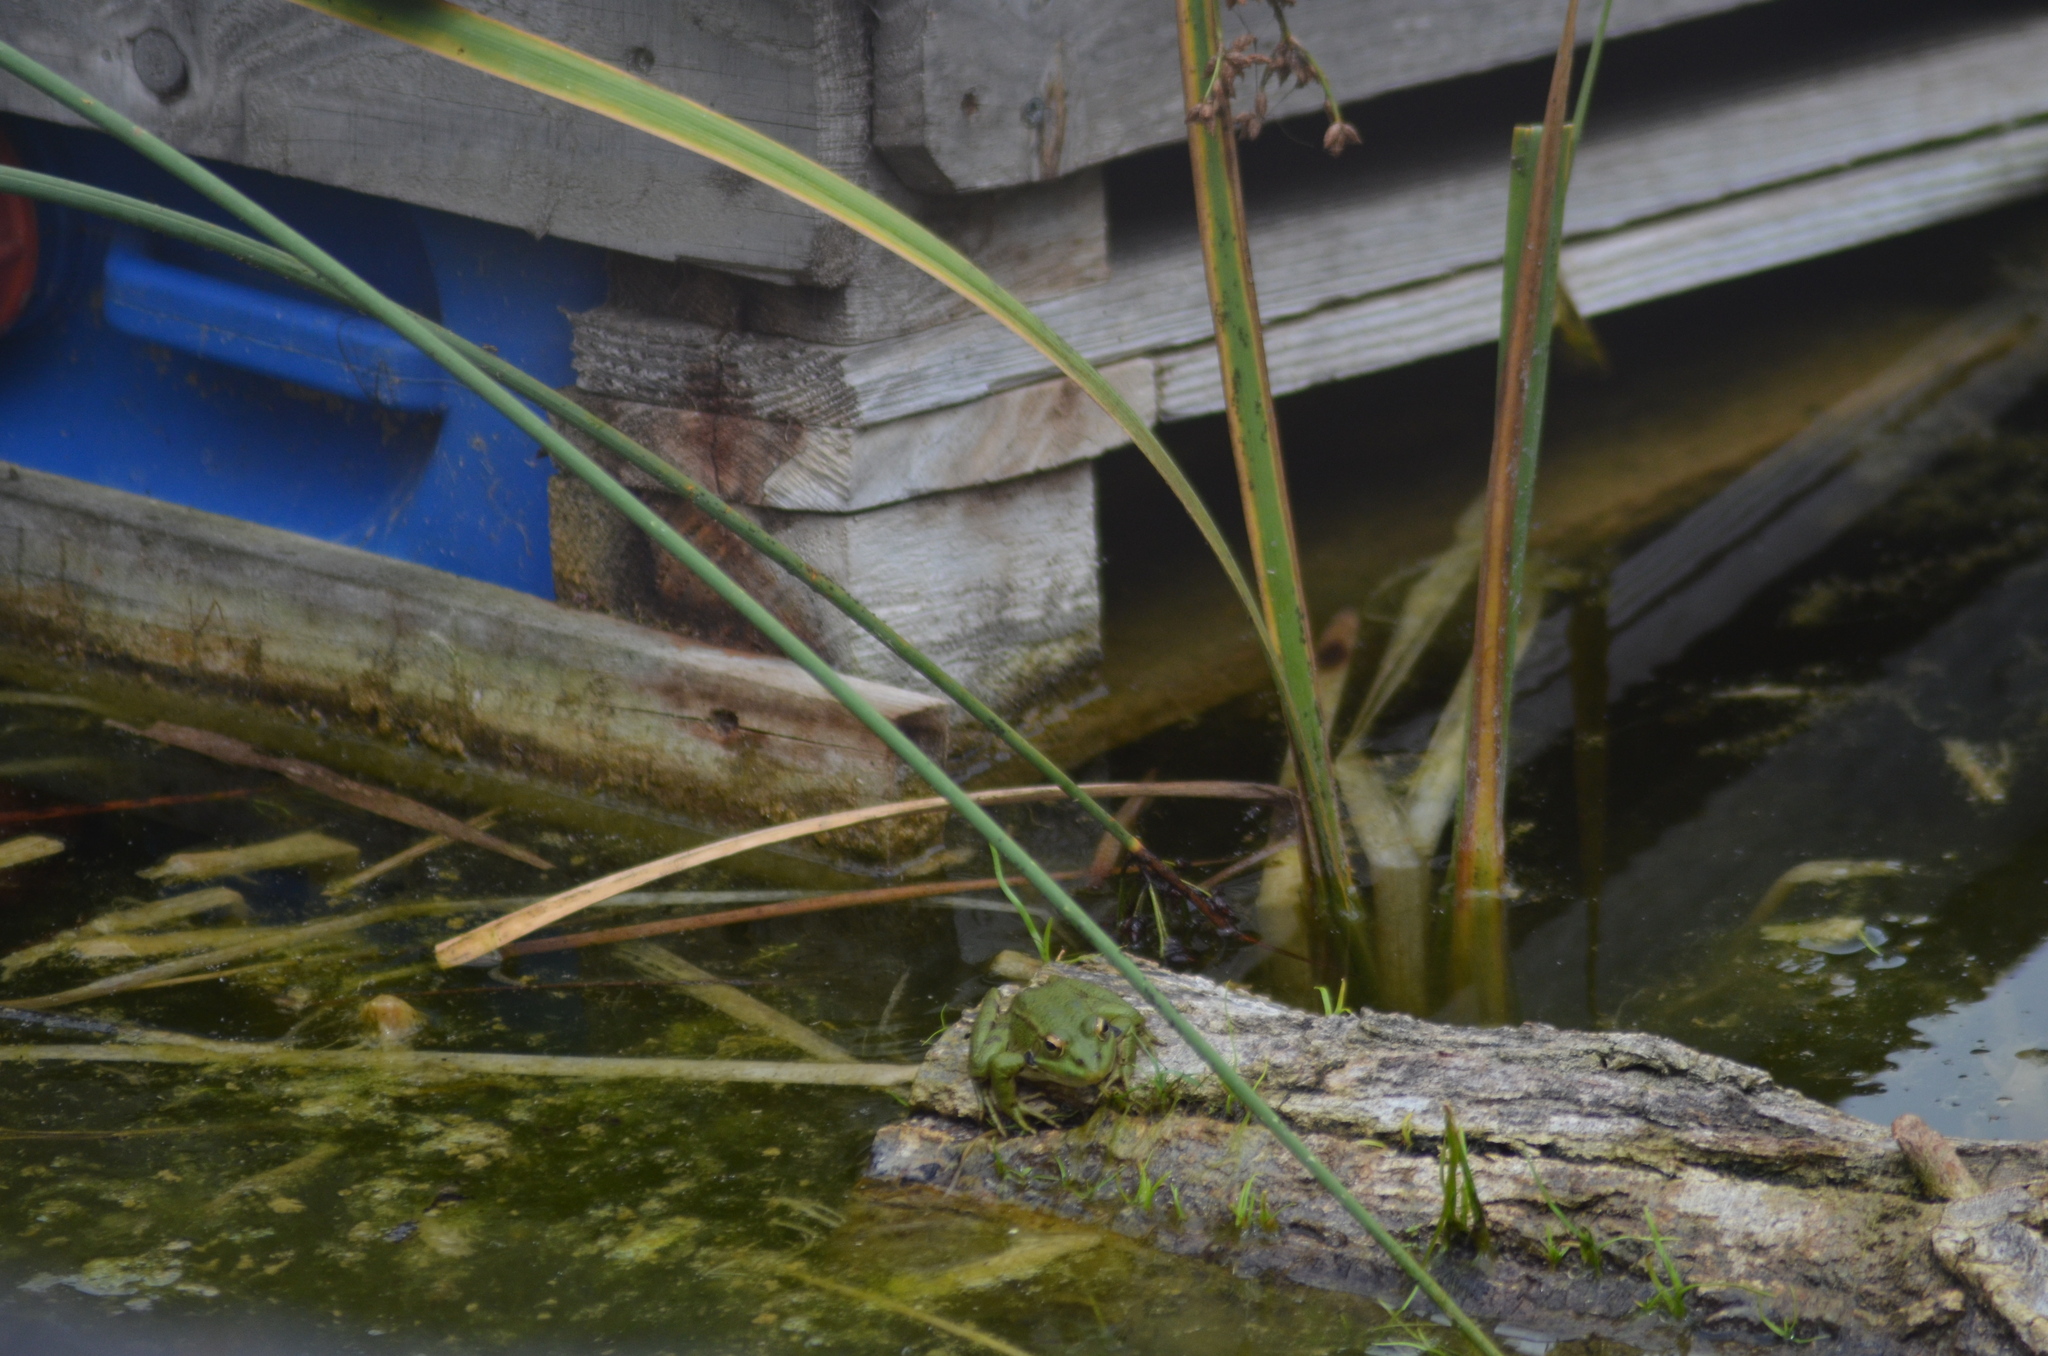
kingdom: Animalia
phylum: Chordata
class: Amphibia
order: Anura
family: Ranidae
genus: Pelophylax
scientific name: Pelophylax
